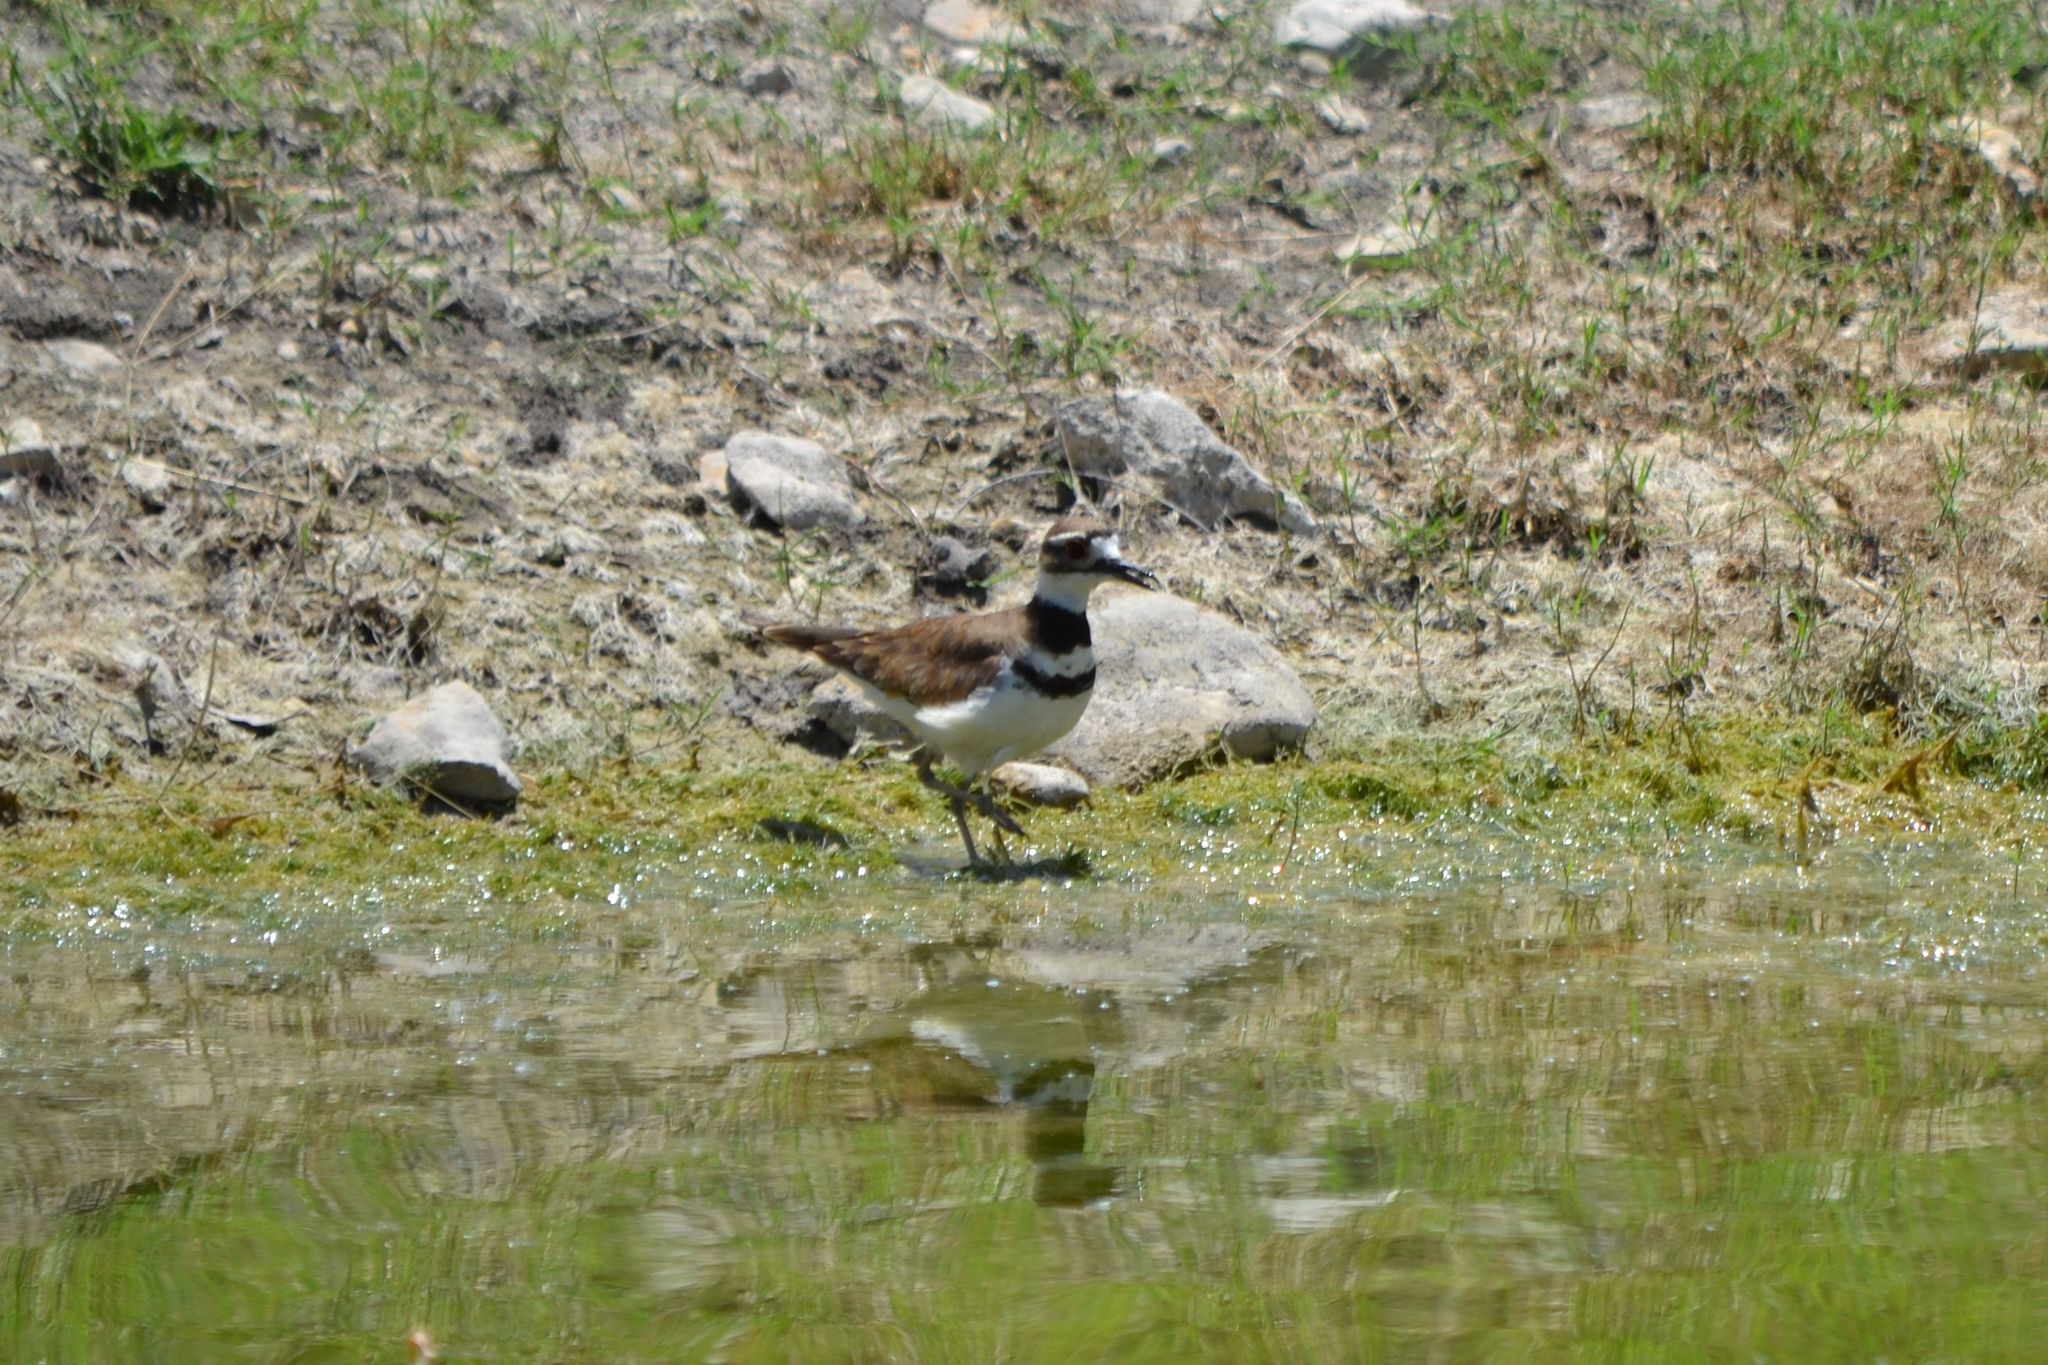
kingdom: Animalia
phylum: Chordata
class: Aves
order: Charadriiformes
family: Charadriidae
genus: Charadrius
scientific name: Charadrius vociferus
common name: Killdeer
